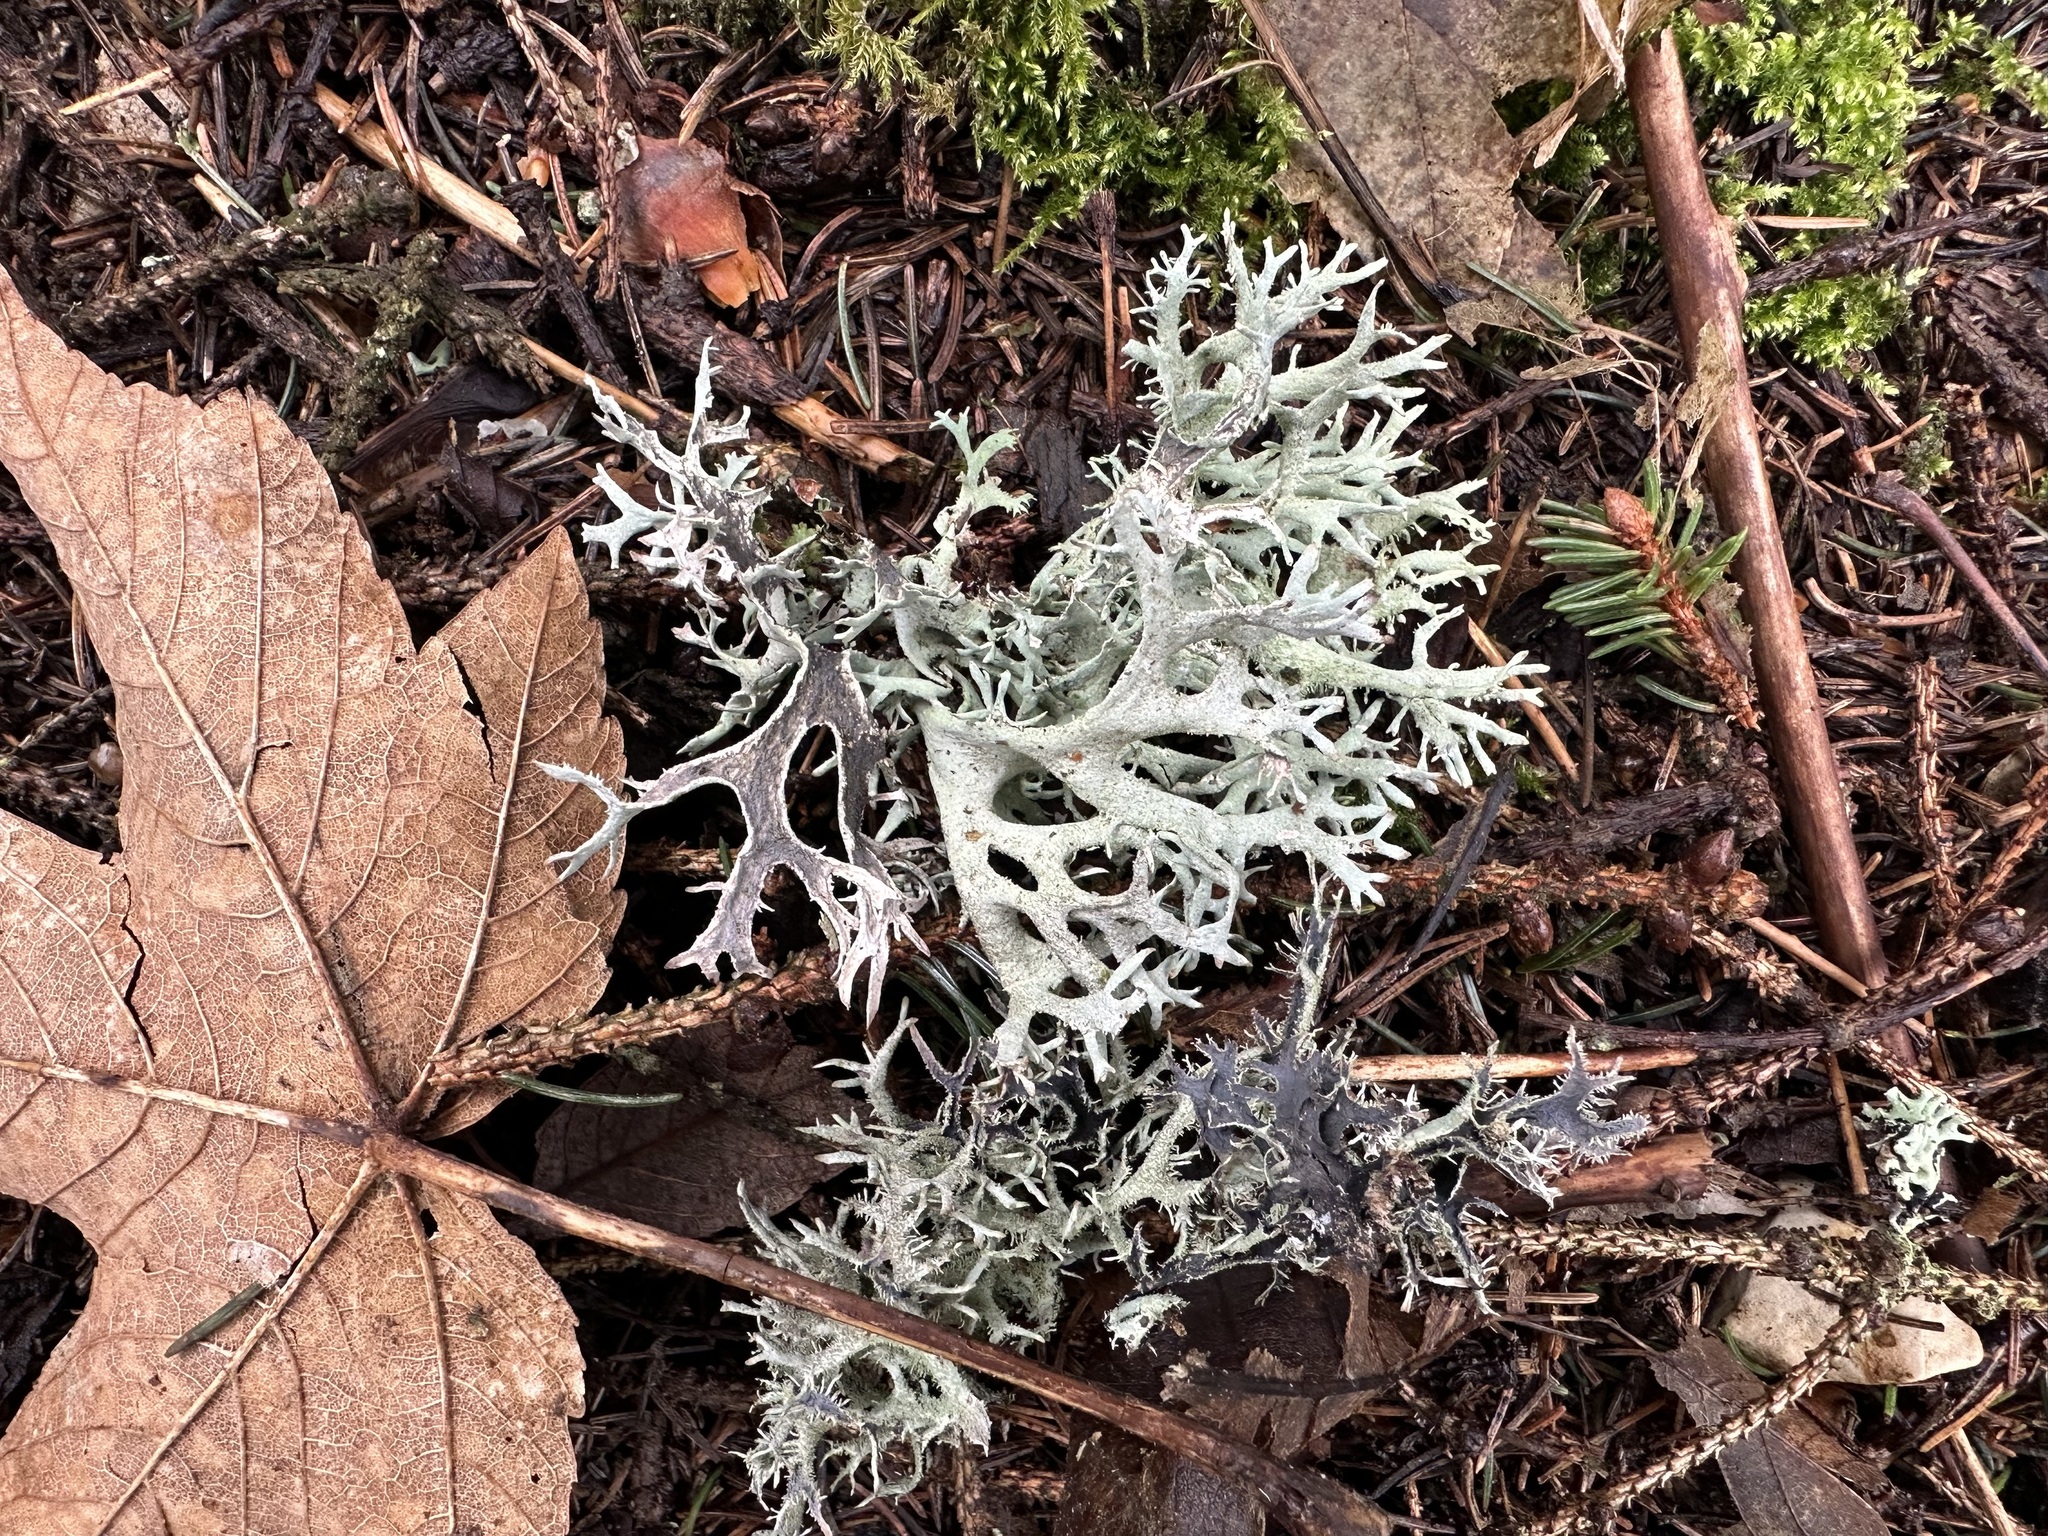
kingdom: Fungi
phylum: Ascomycota
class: Lecanoromycetes
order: Lecanorales
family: Parmeliaceae
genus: Pseudevernia
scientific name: Pseudevernia furfuracea
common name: Tree moss
